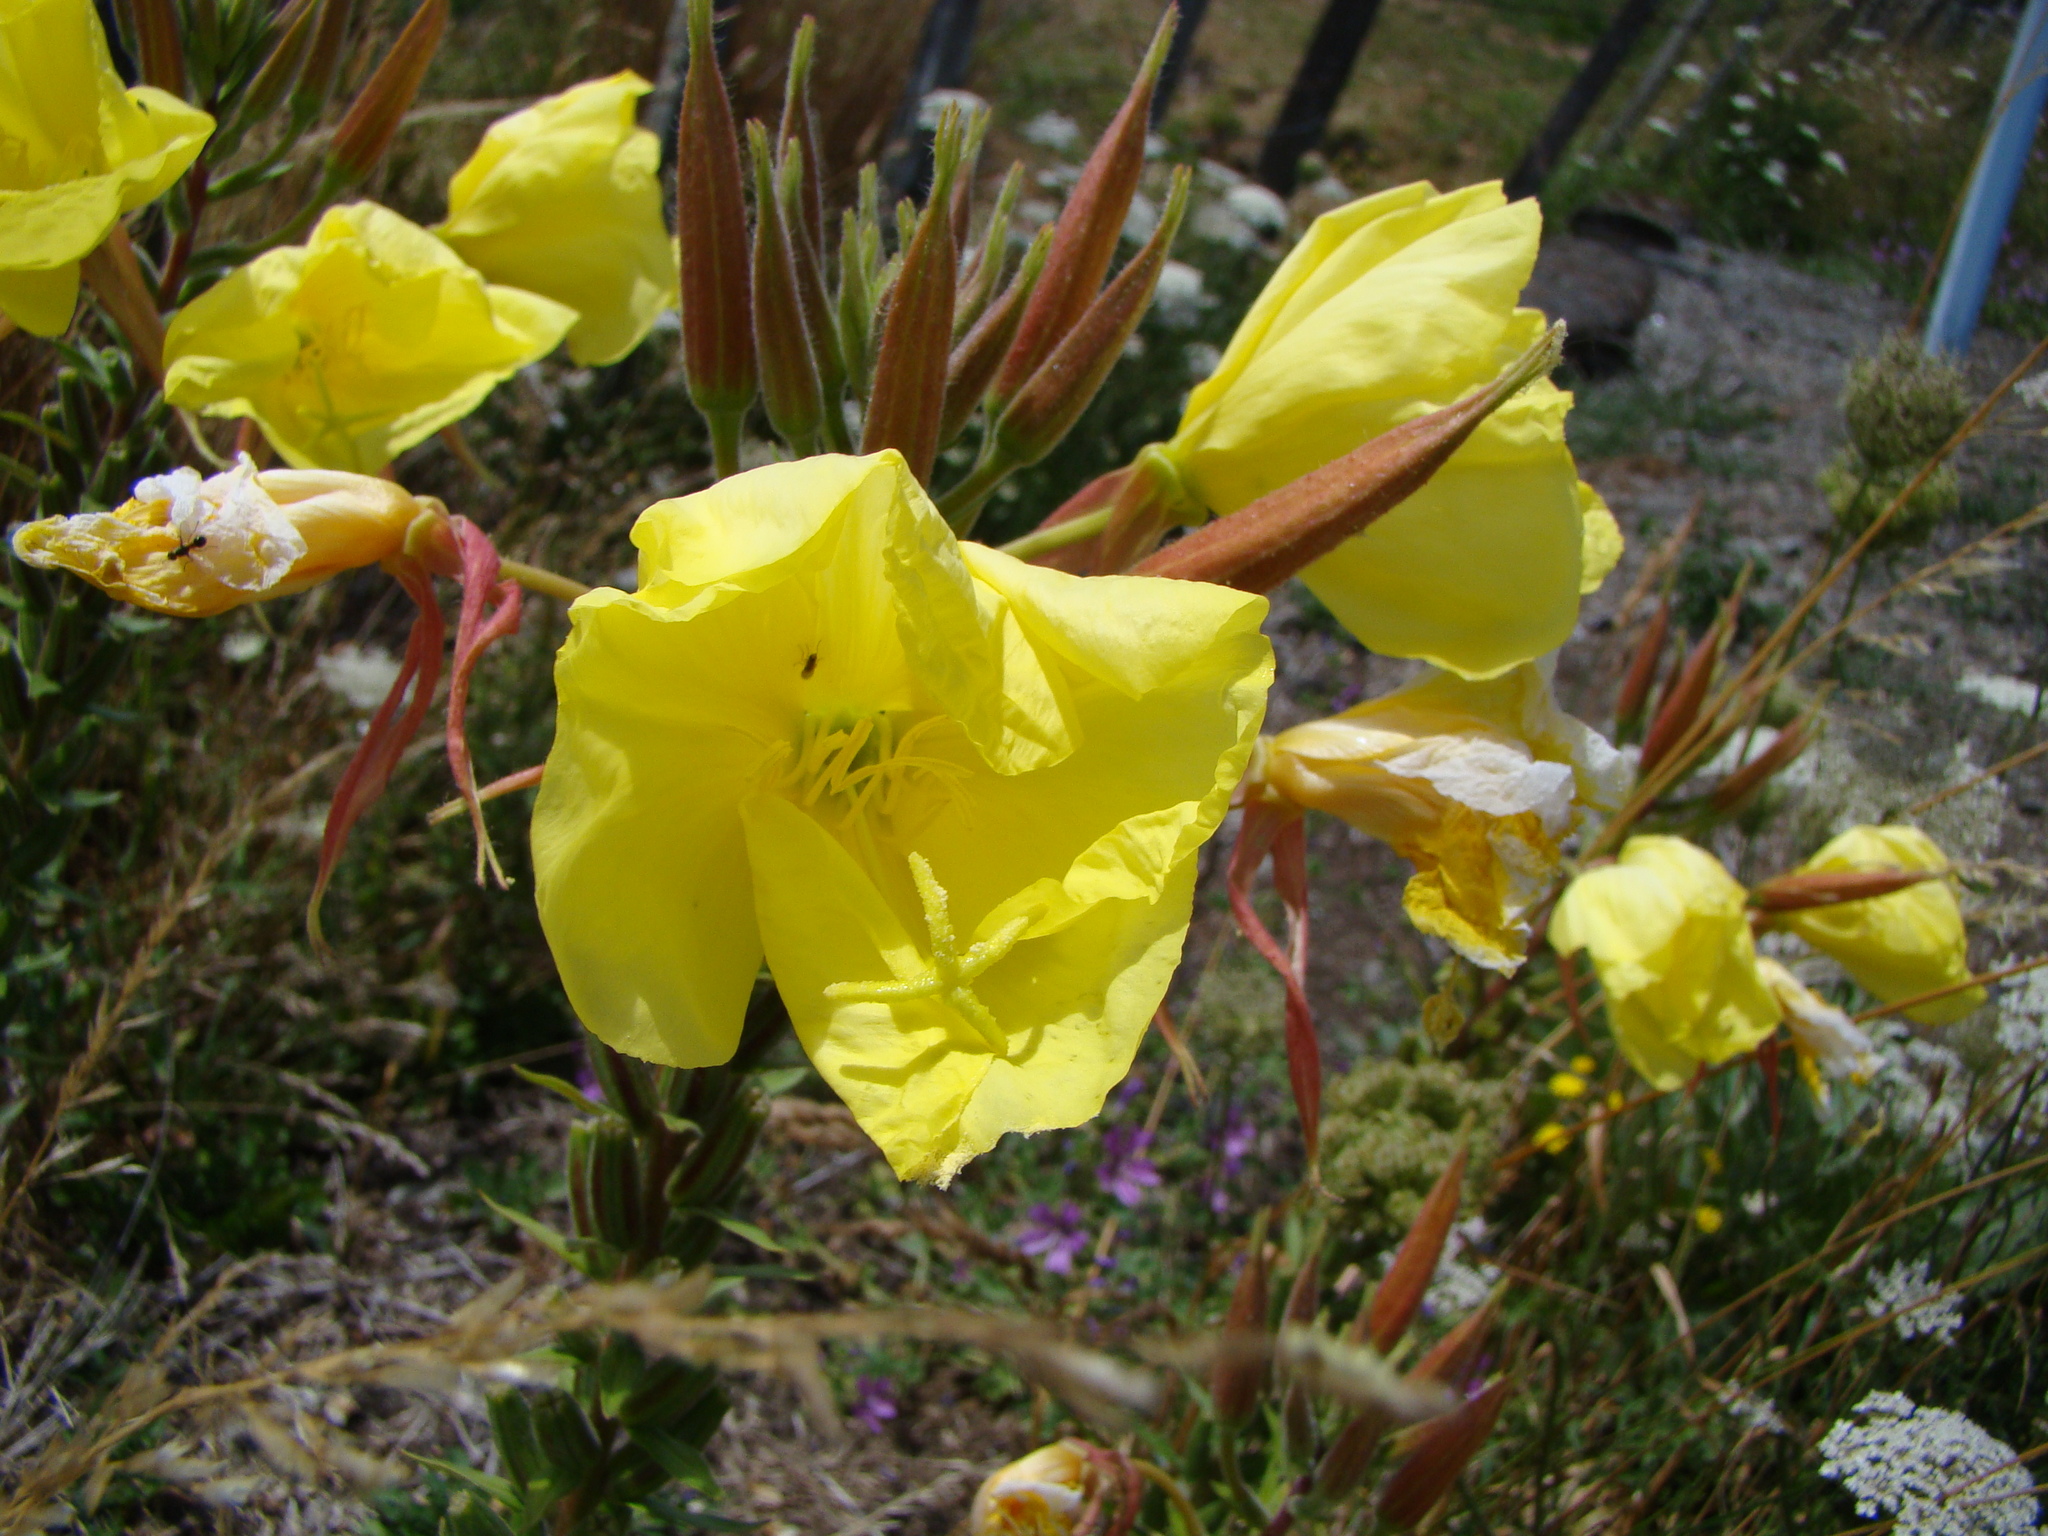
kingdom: Plantae
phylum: Tracheophyta
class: Magnoliopsida
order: Myrtales
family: Onagraceae
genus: Oenothera
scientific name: Oenothera glazioviana
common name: Large-flowered evening-primrose
